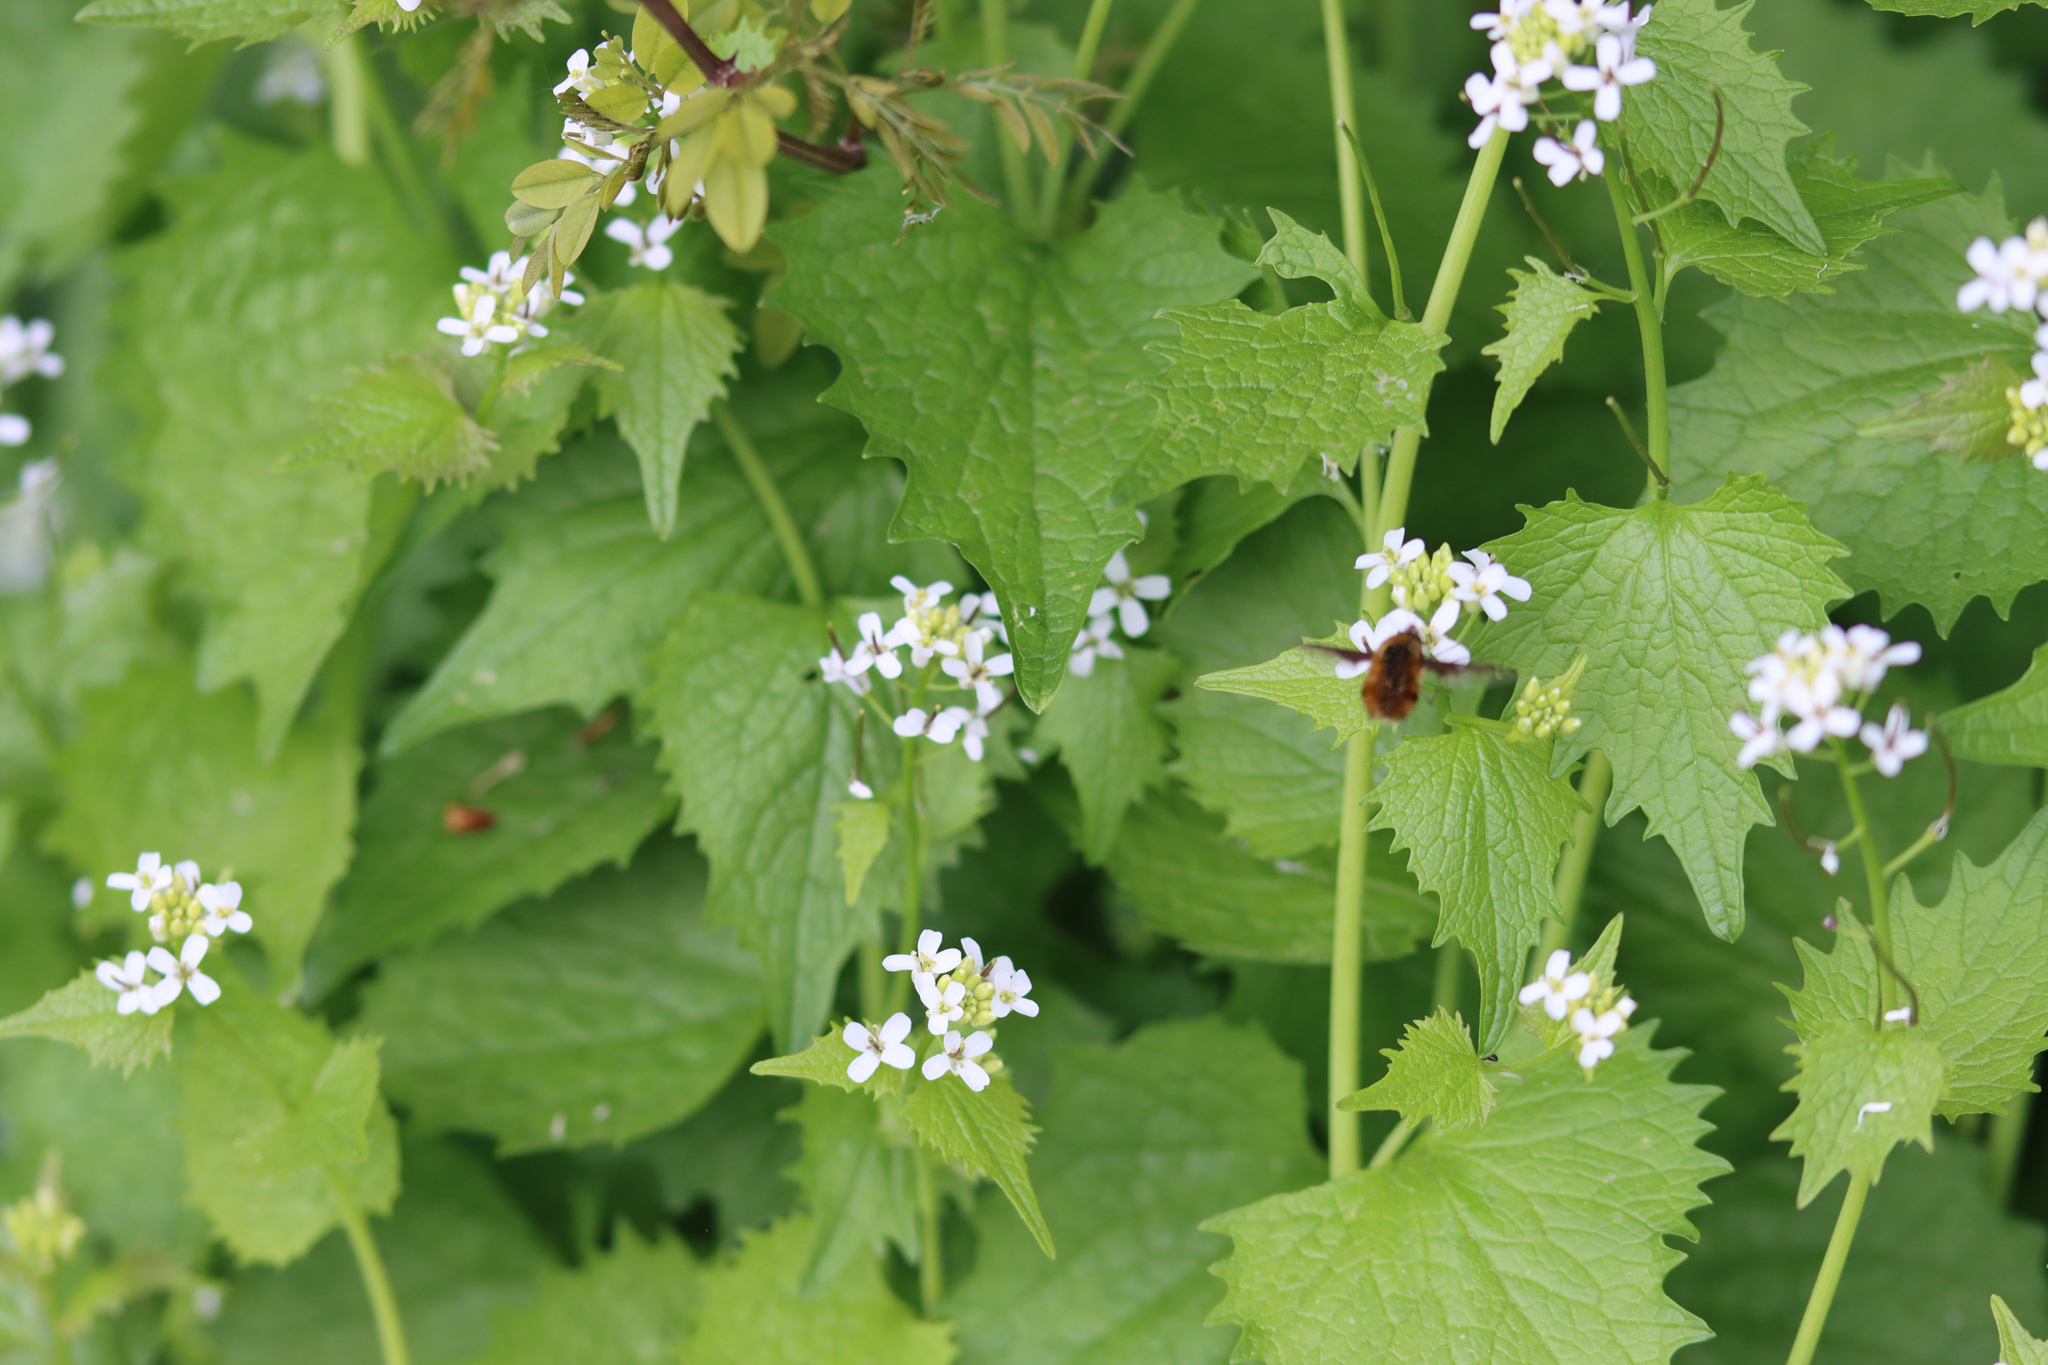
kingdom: Plantae
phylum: Tracheophyta
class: Magnoliopsida
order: Brassicales
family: Brassicaceae
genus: Alliaria
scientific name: Alliaria petiolata
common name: Garlic mustard
